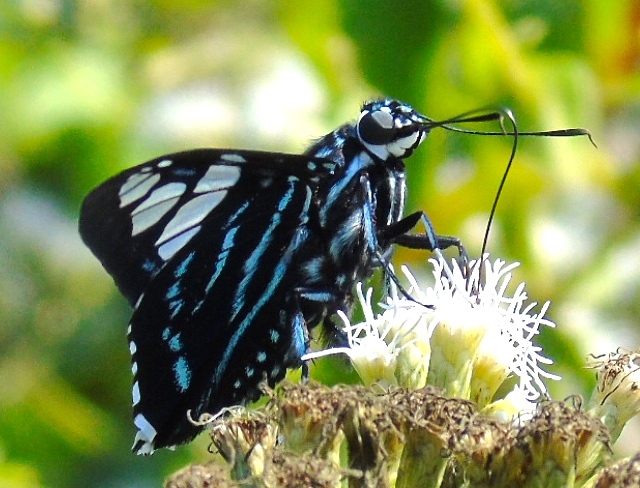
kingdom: Animalia
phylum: Arthropoda
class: Insecta
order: Lepidoptera
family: Hesperiidae
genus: Phocides
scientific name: Phocides pigmalion
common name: Mangrove skipper
